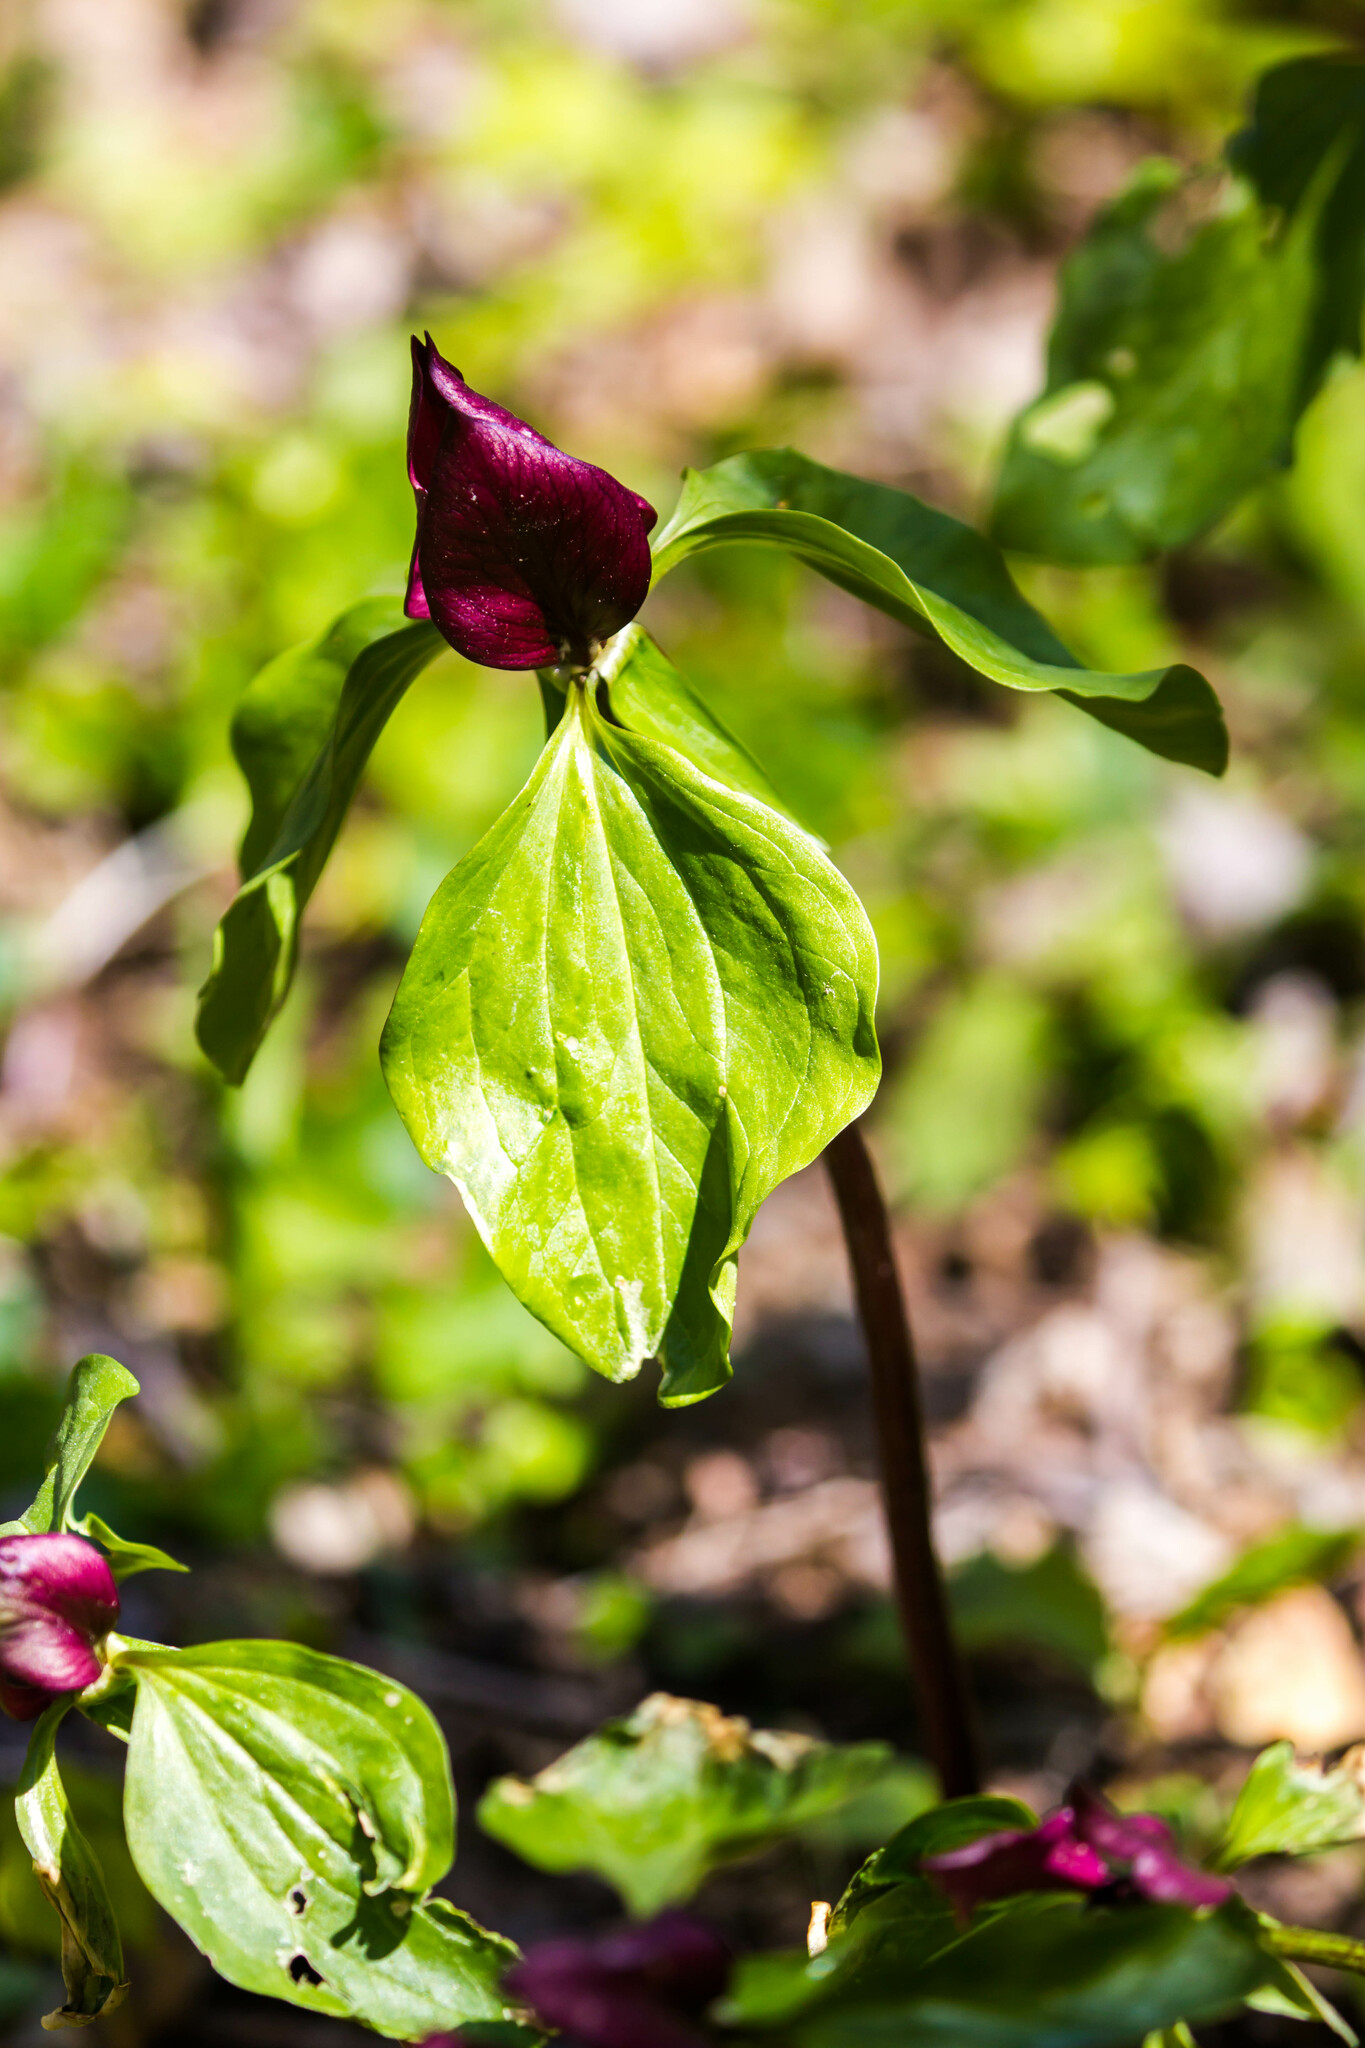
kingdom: Plantae
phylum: Tracheophyta
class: Liliopsida
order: Liliales
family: Melanthiaceae
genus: Trillium
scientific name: Trillium recurvatum
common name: Bloody butcher
